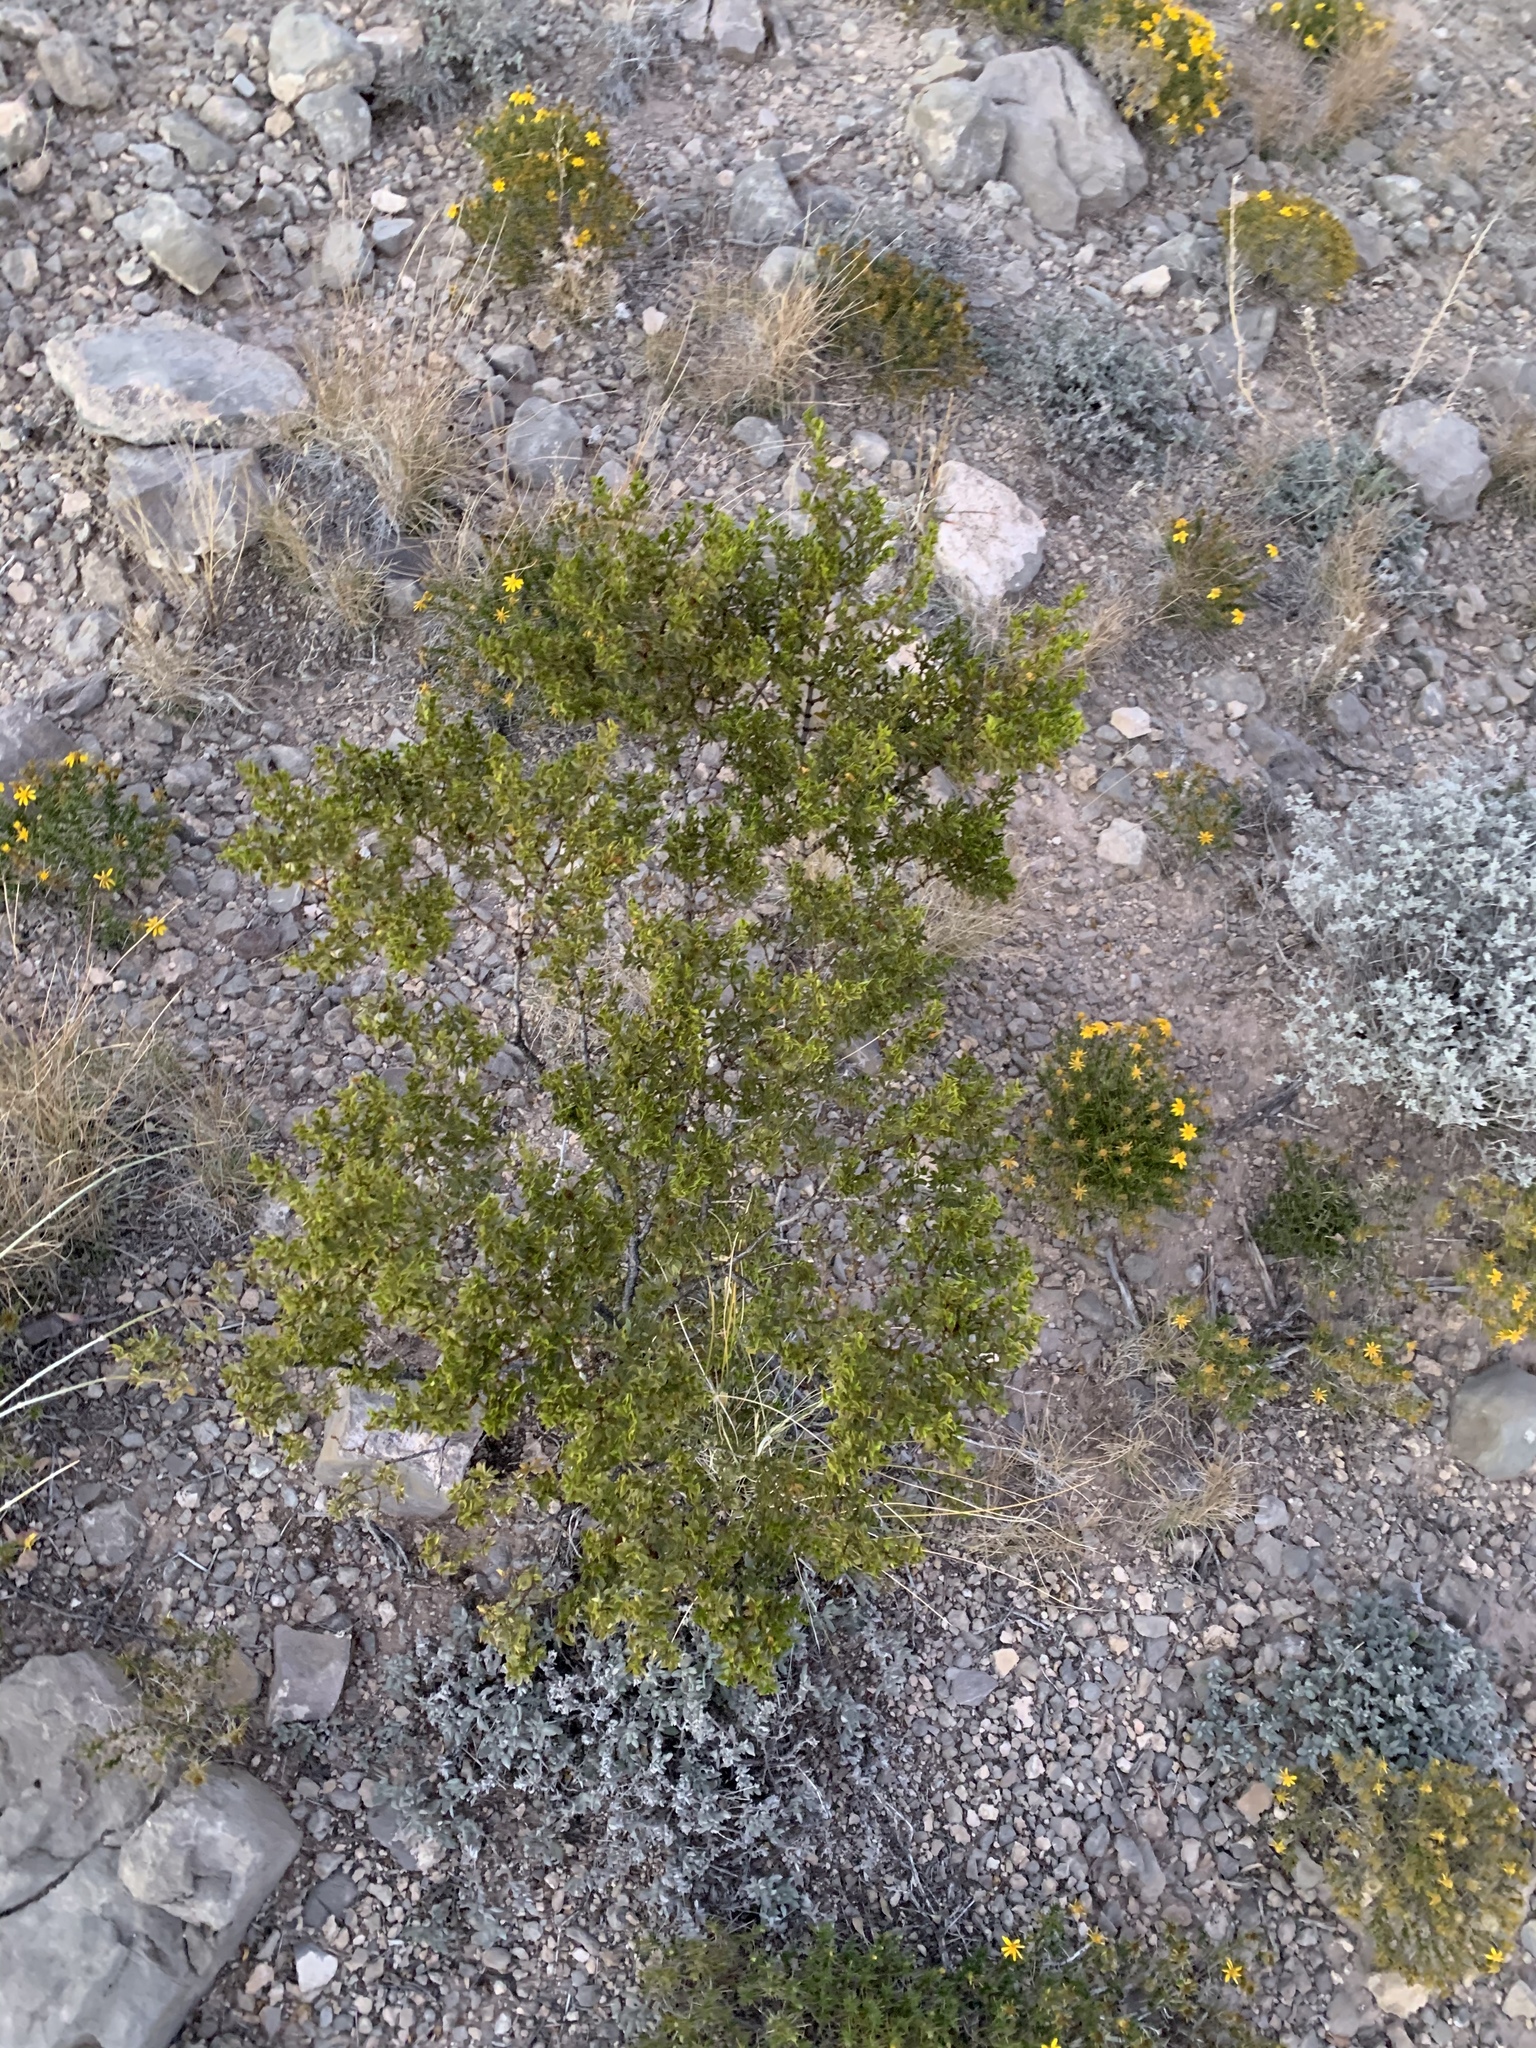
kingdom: Plantae
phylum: Tracheophyta
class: Magnoliopsida
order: Zygophyllales
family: Zygophyllaceae
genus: Larrea
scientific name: Larrea tridentata
